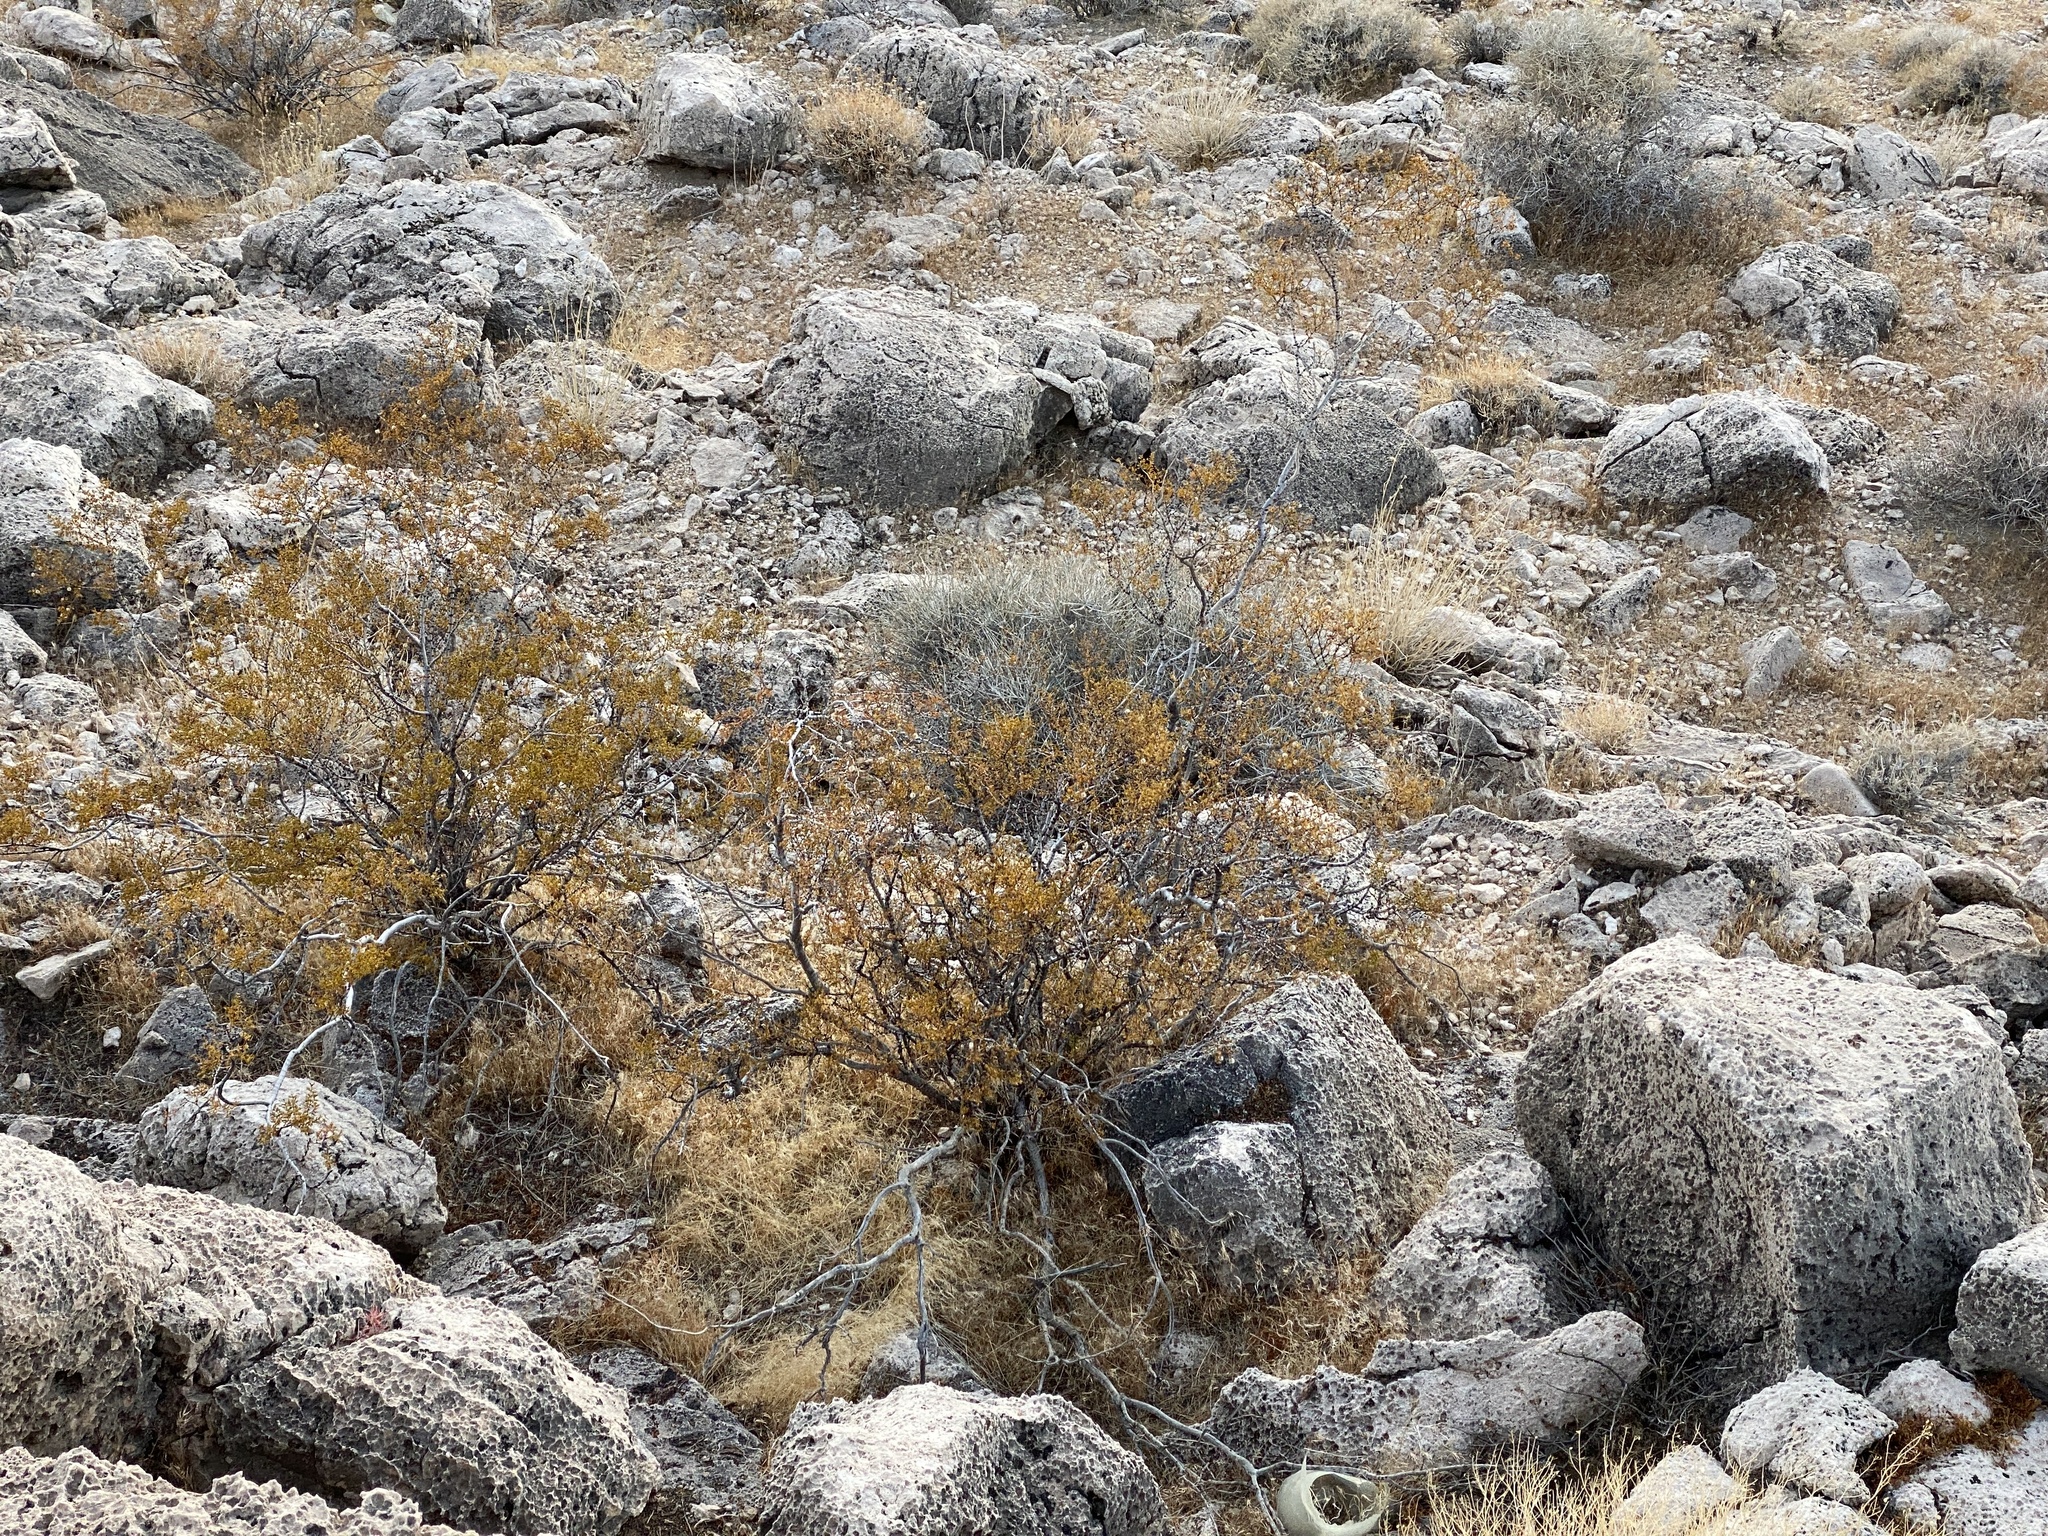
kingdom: Plantae
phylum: Tracheophyta
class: Magnoliopsida
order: Zygophyllales
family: Zygophyllaceae
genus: Larrea
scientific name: Larrea tridentata
